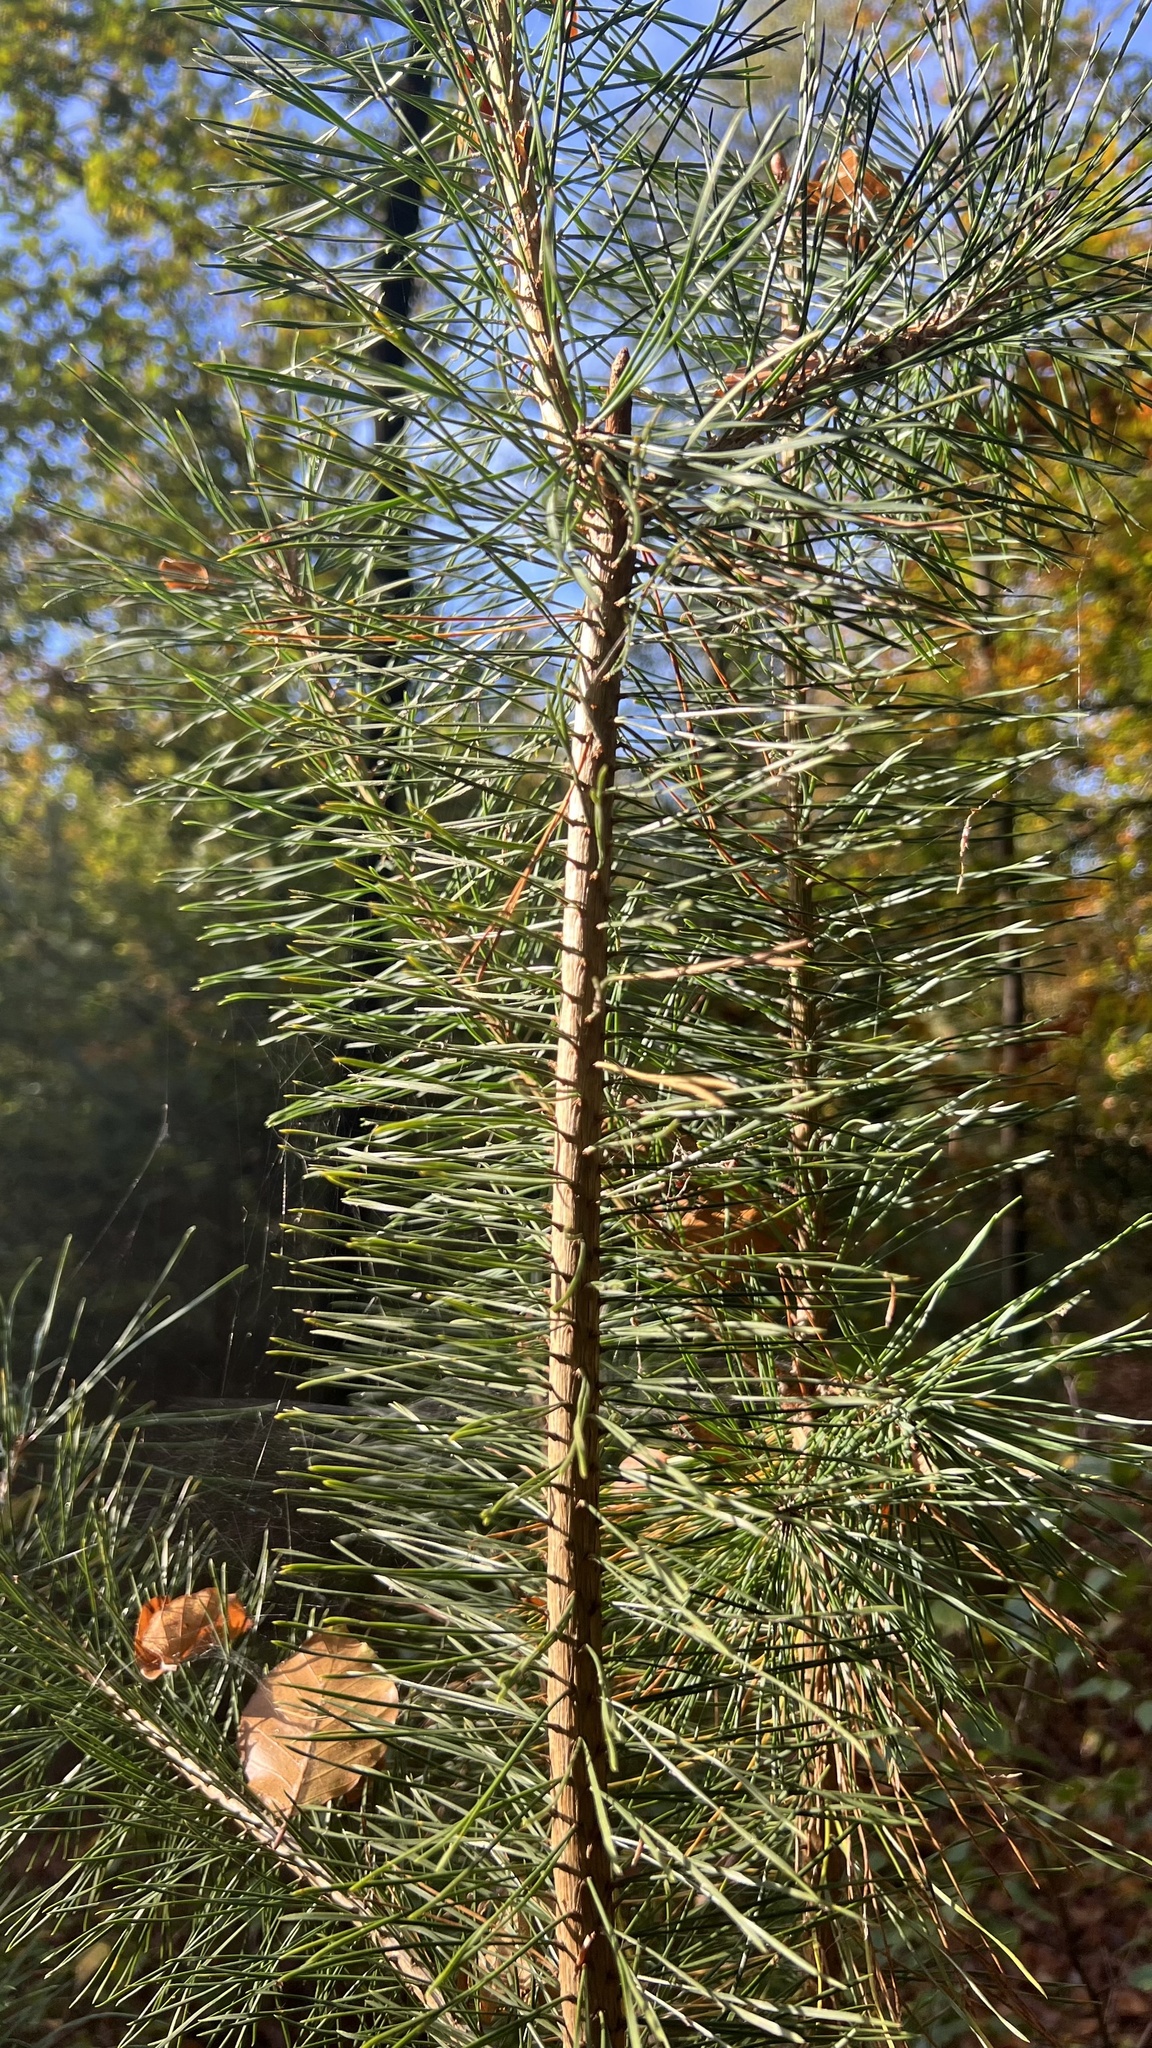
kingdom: Plantae
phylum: Tracheophyta
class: Pinopsida
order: Pinales
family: Pinaceae
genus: Pinus
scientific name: Pinus sylvestris
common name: Scots pine
